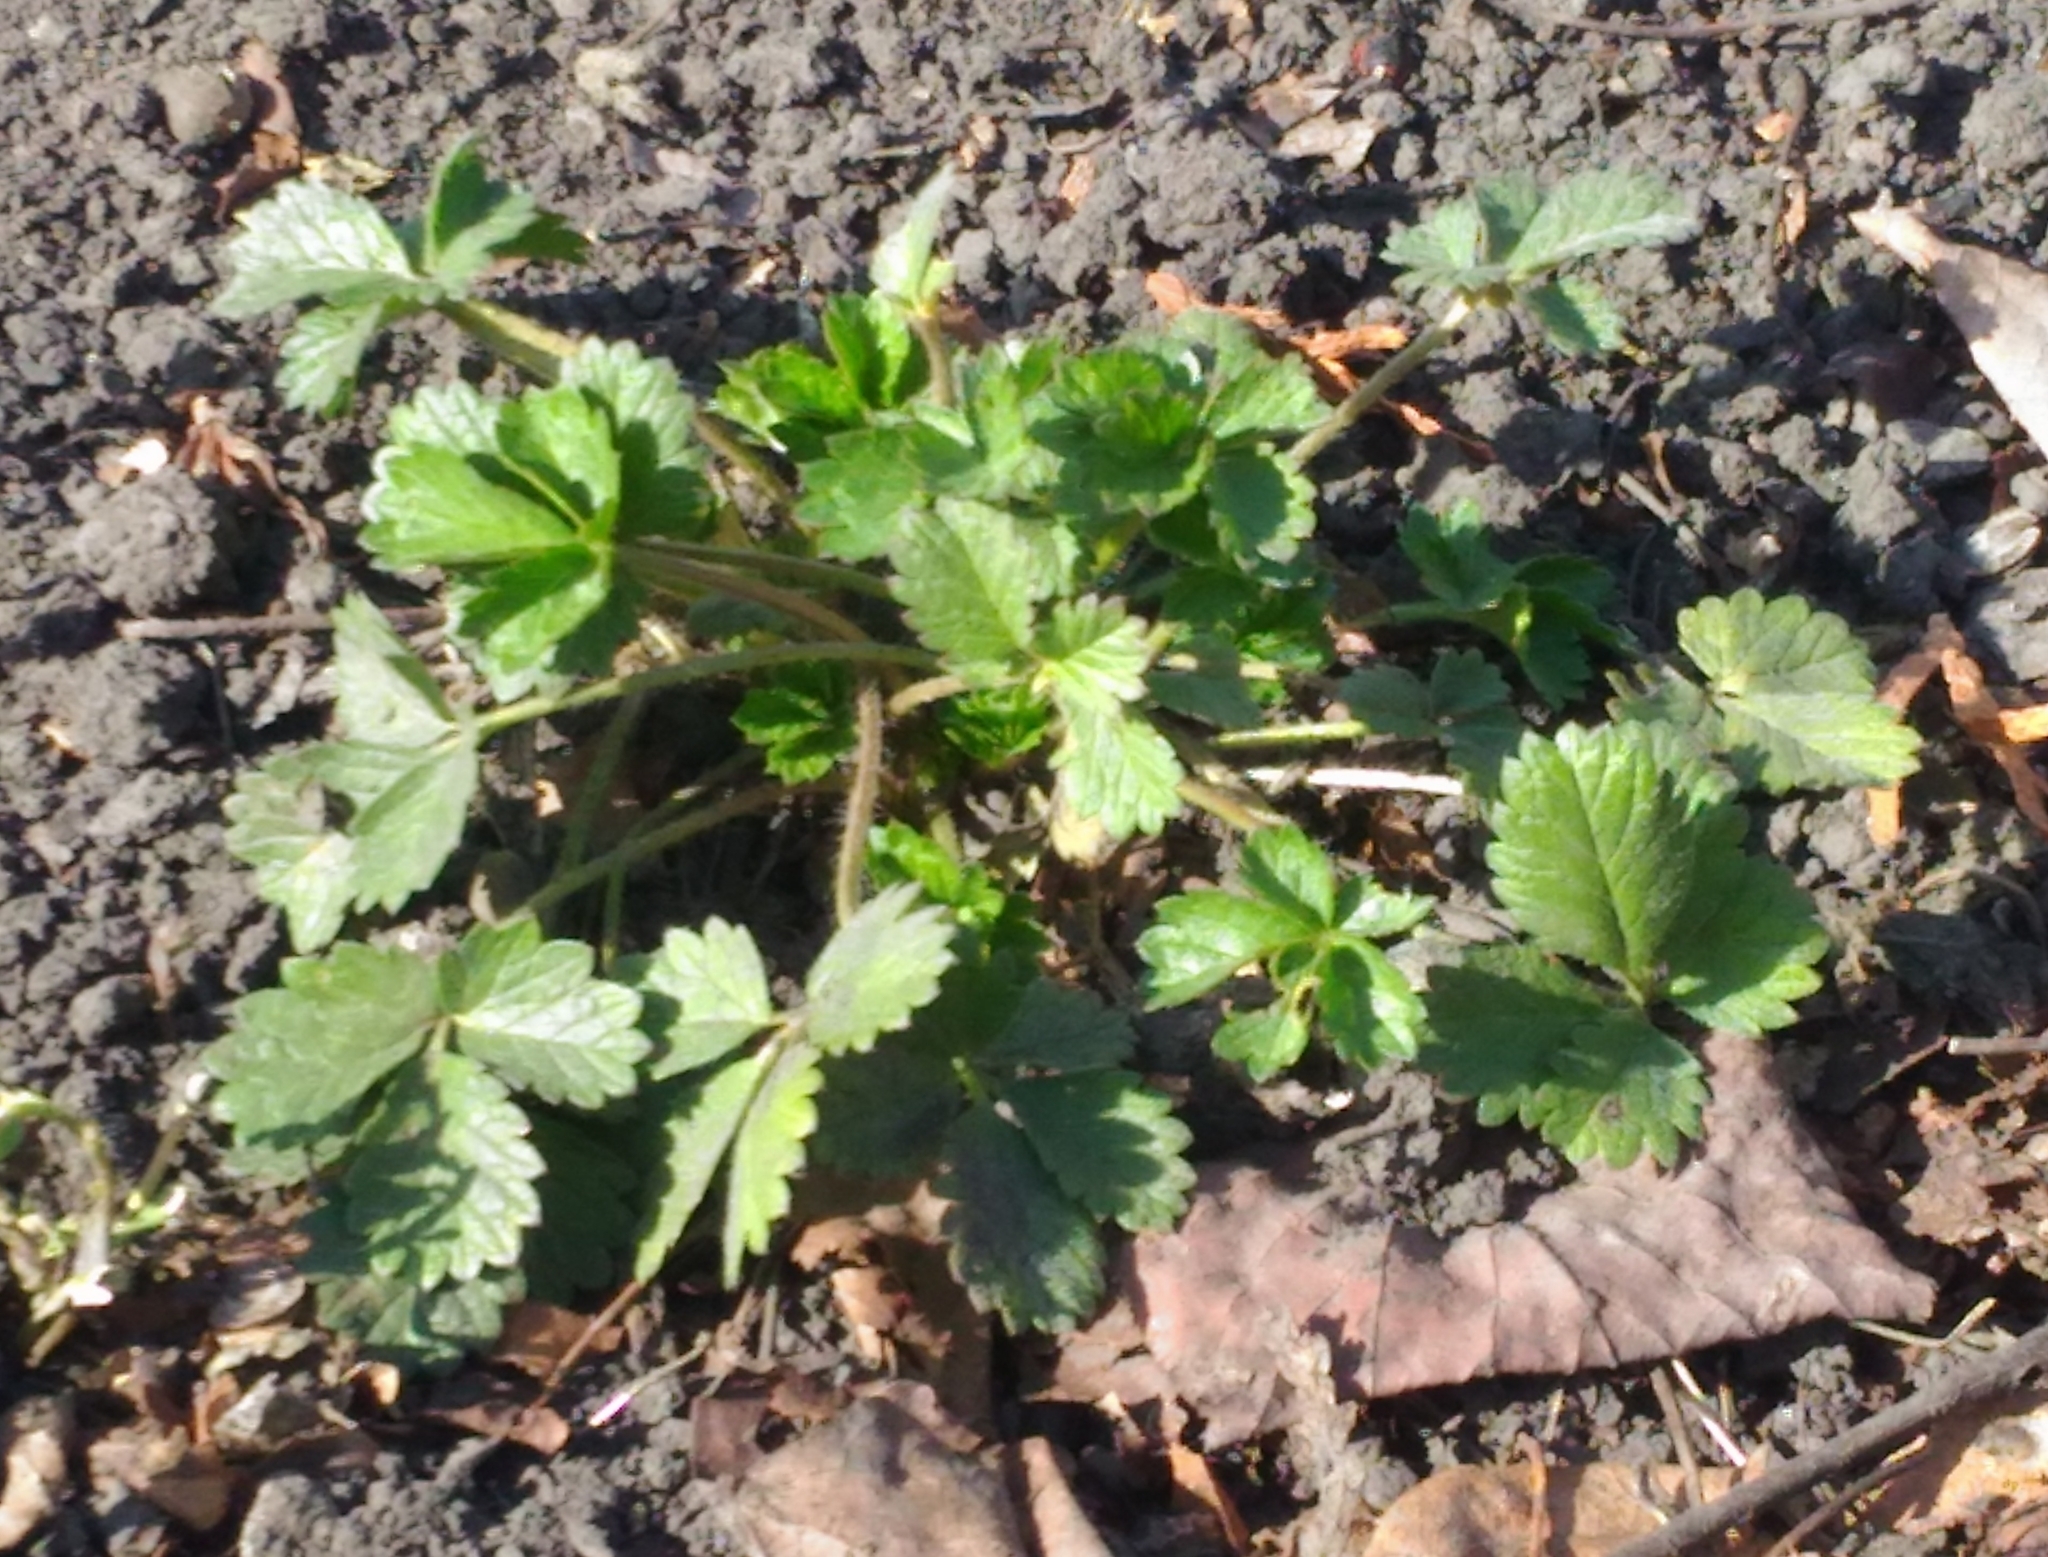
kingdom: Plantae
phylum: Tracheophyta
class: Magnoliopsida
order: Rosales
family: Rosaceae
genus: Potentilla
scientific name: Potentilla intermedia
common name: Downy cinquefoil
